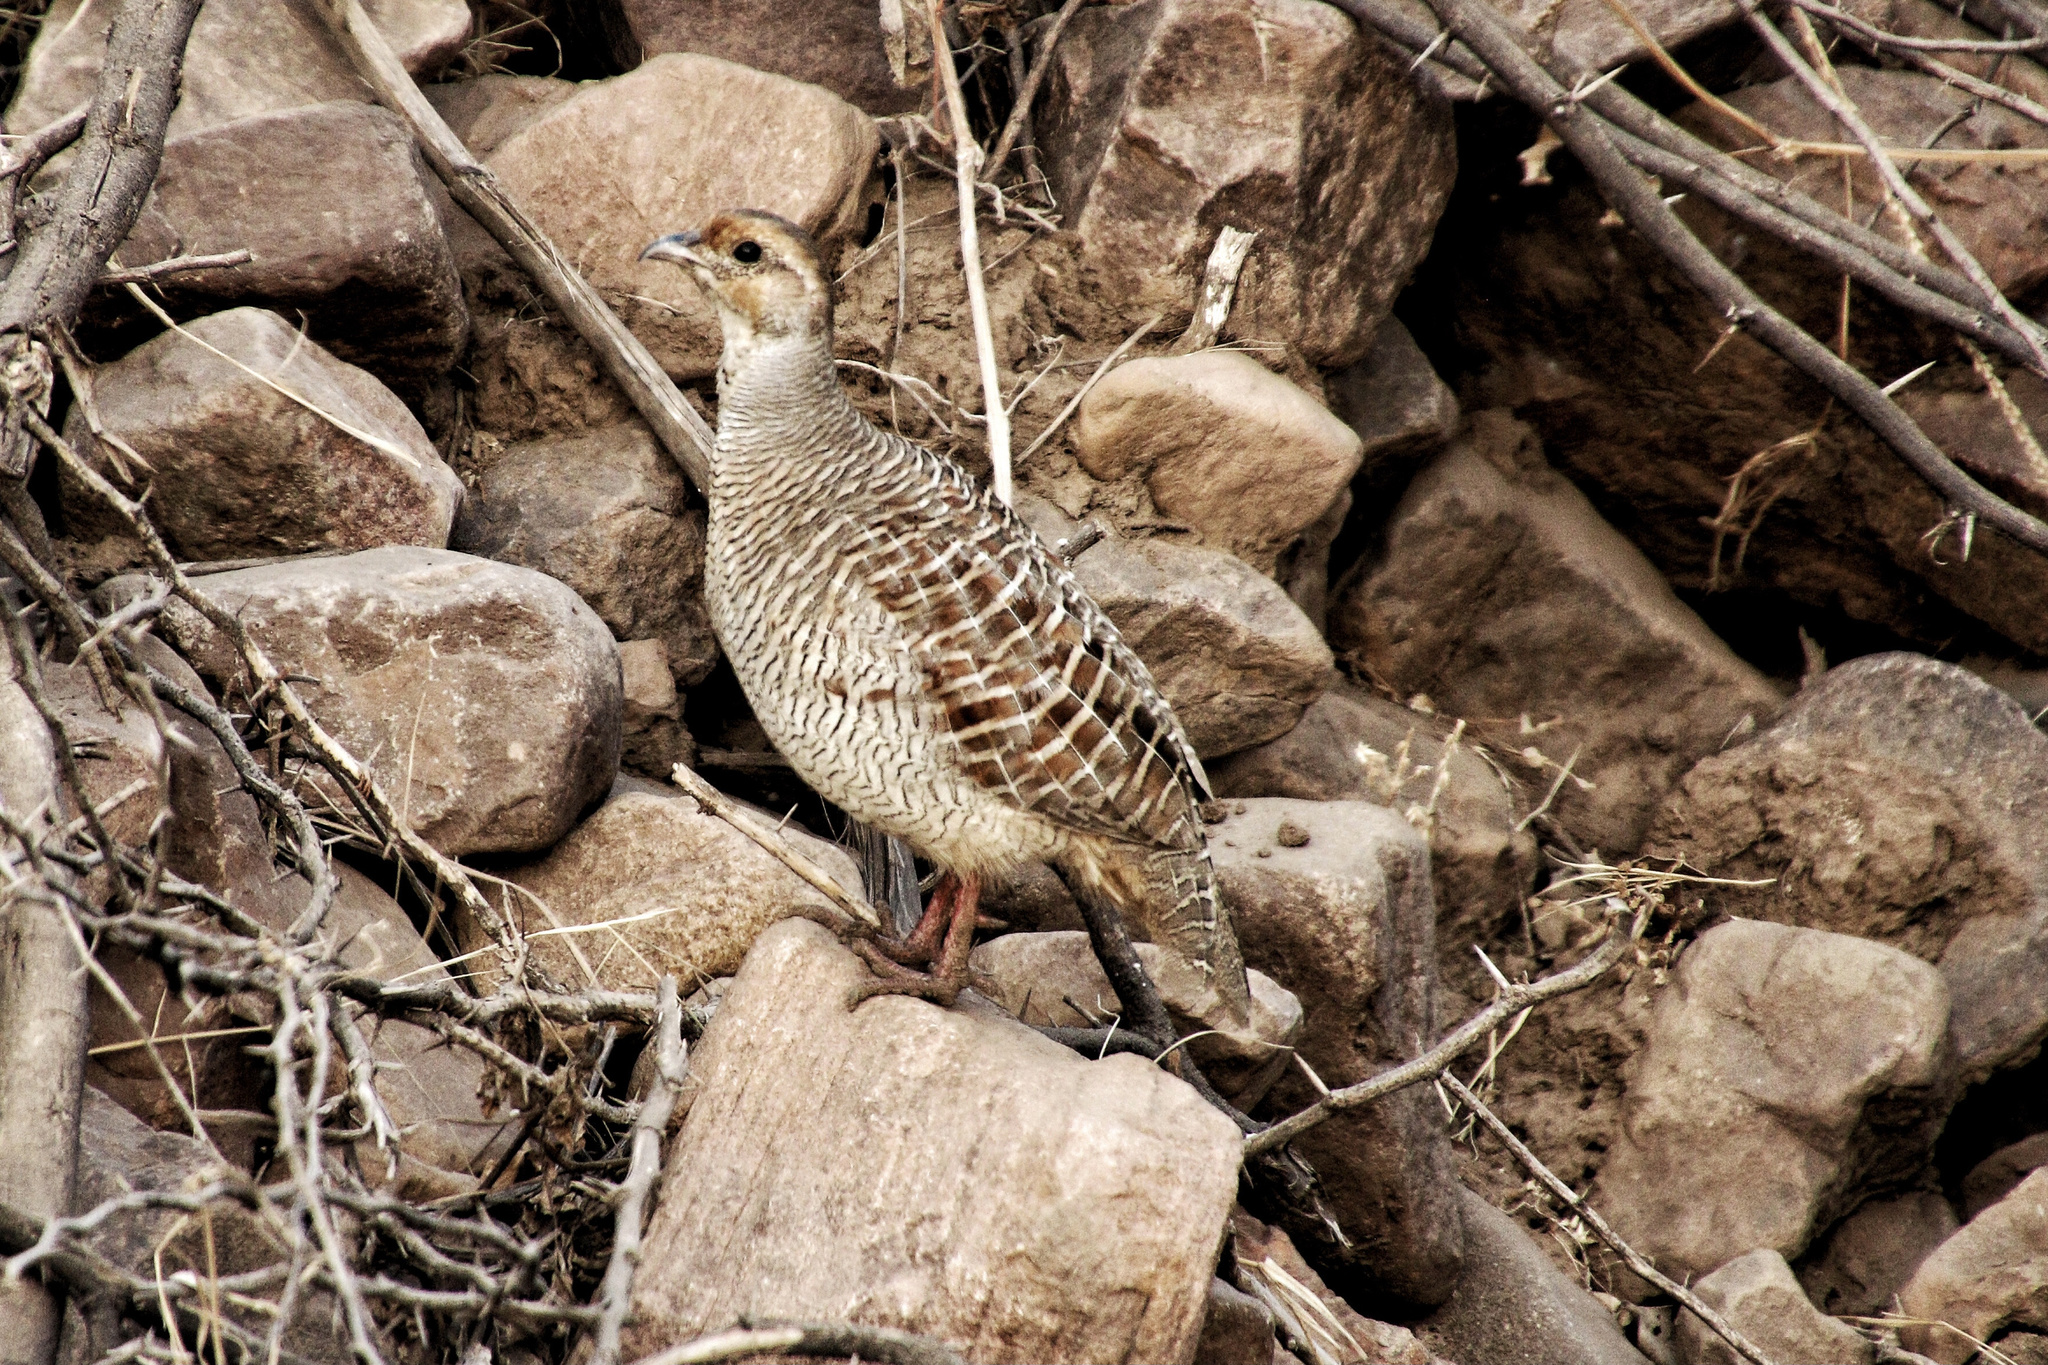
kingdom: Animalia
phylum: Chordata
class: Aves
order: Galliformes
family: Phasianidae
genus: Ortygornis
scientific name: Ortygornis pondicerianus
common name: Grey francolin
